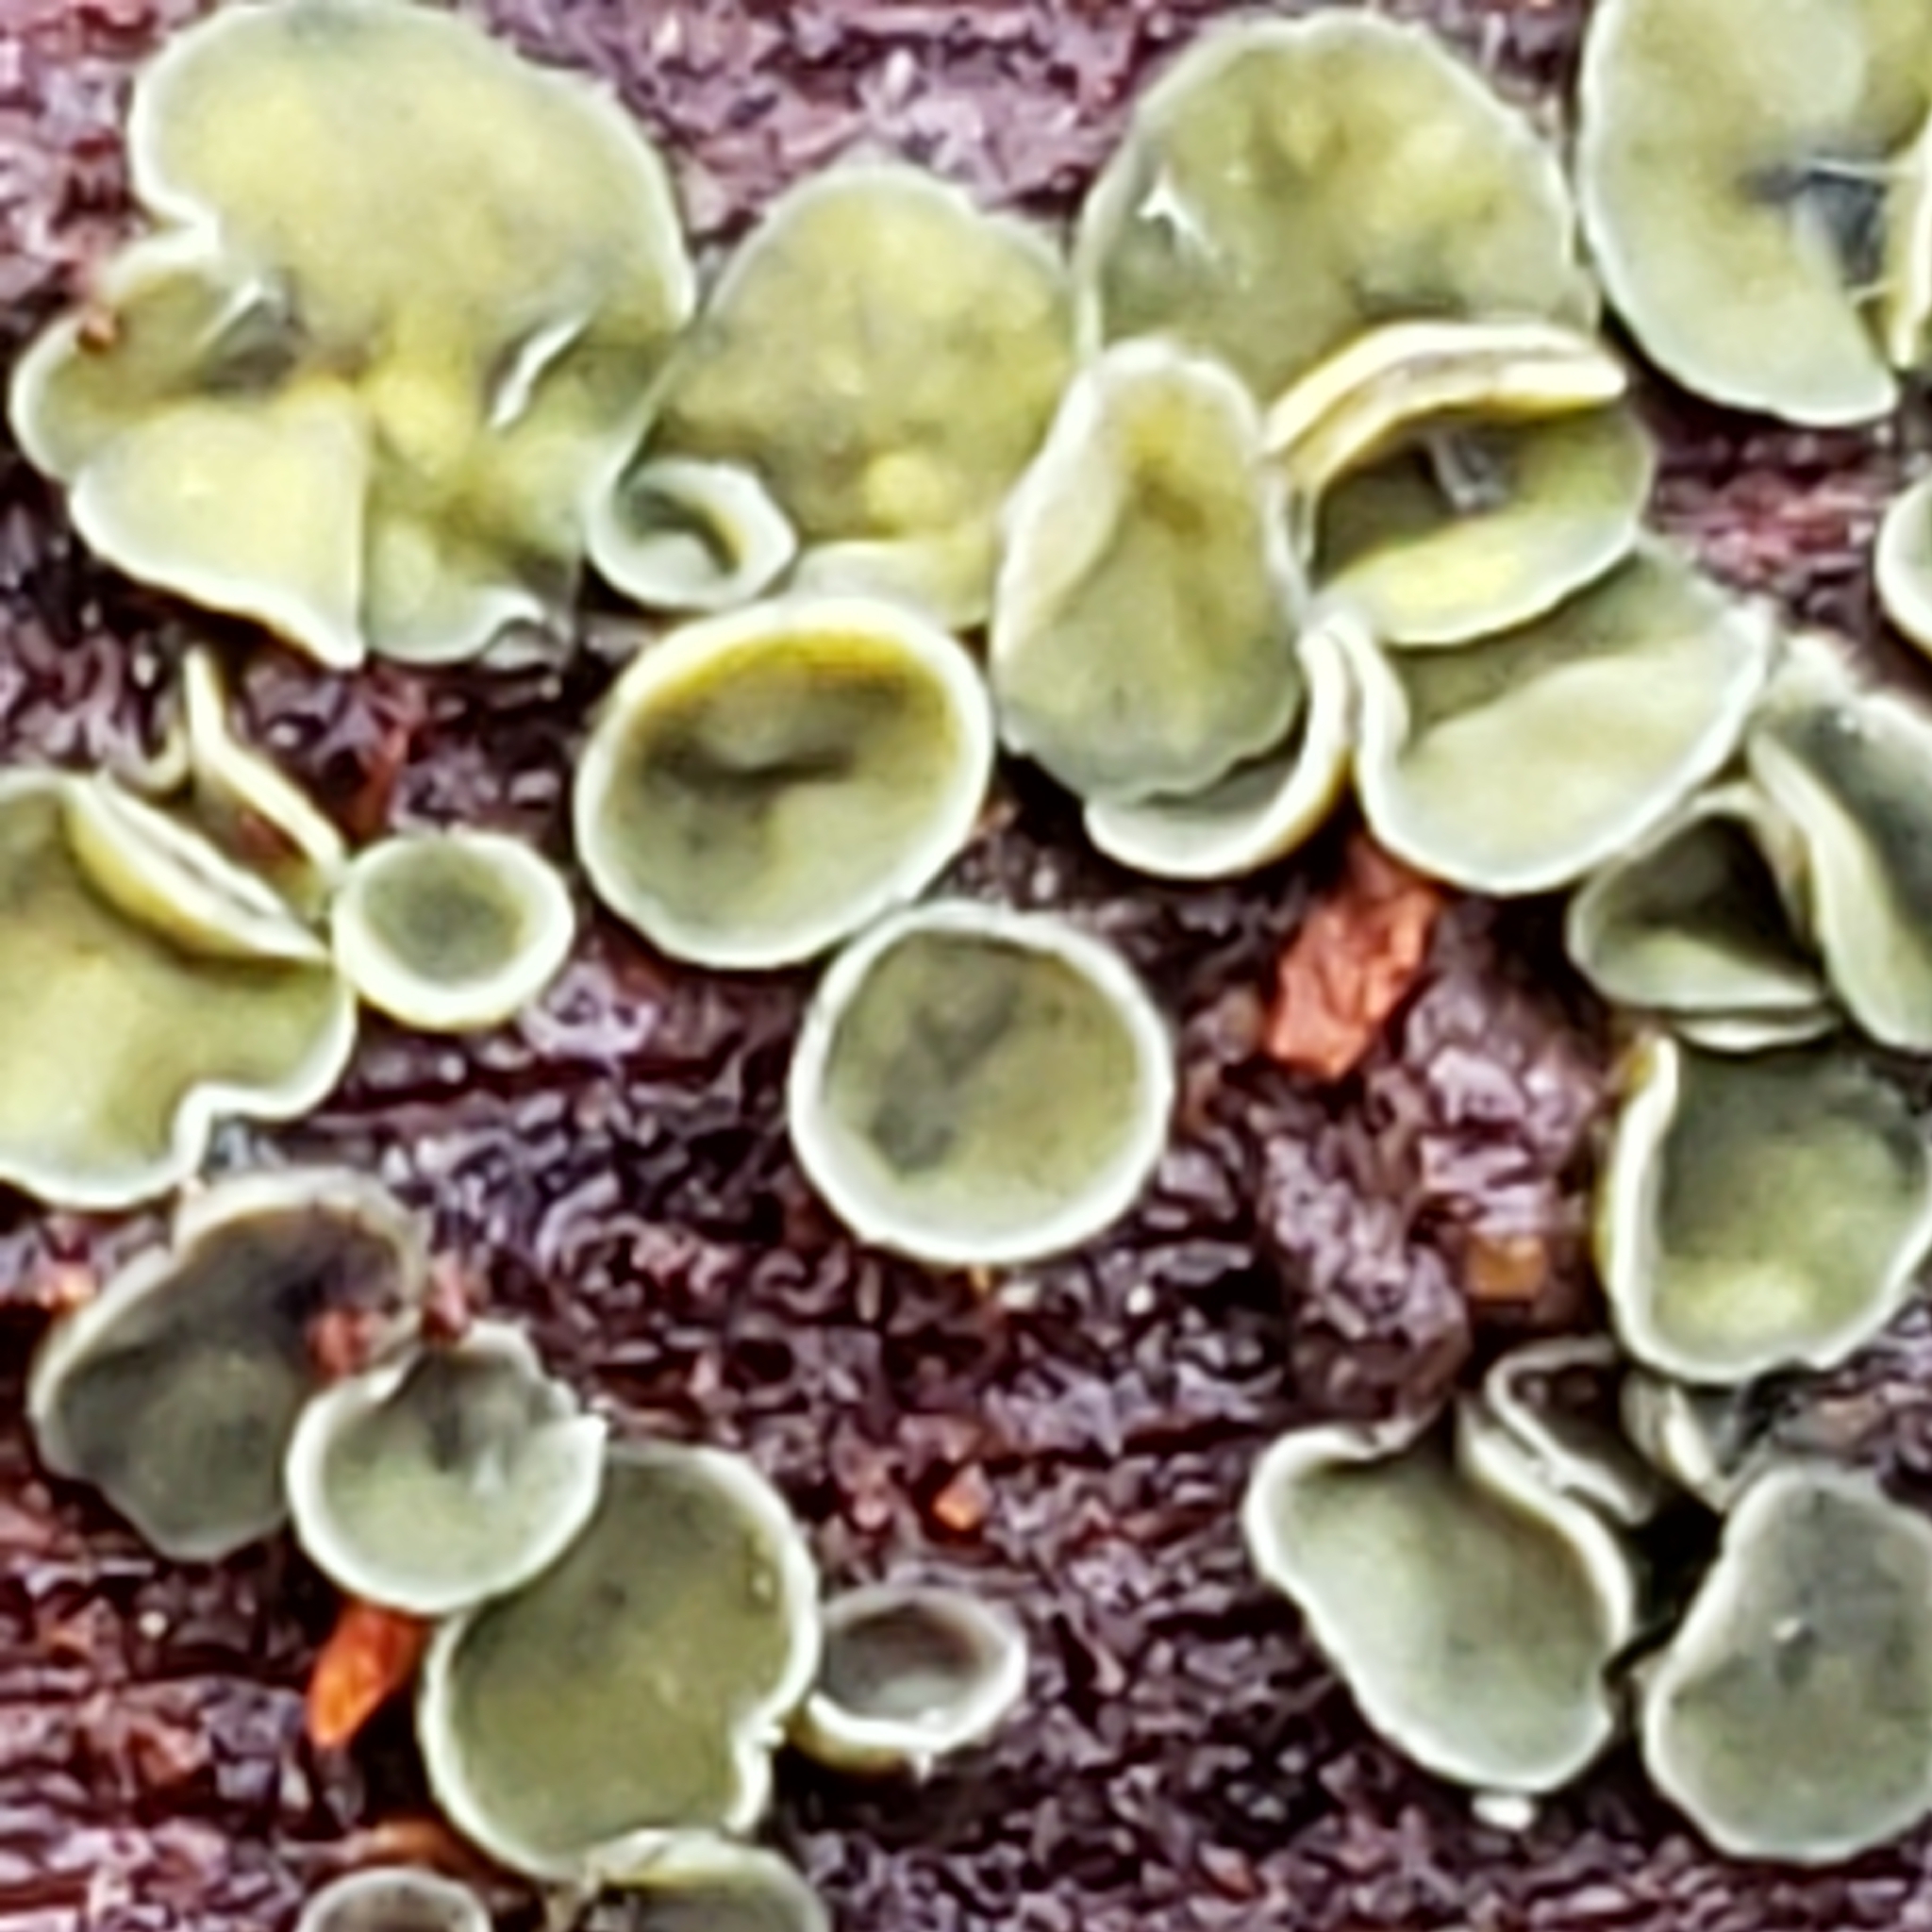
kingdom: Fungi
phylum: Ascomycota
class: Leotiomycetes
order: Helotiales
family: Chlorospleniaceae
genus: Chlorosplenium
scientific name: Chlorosplenium chlora
